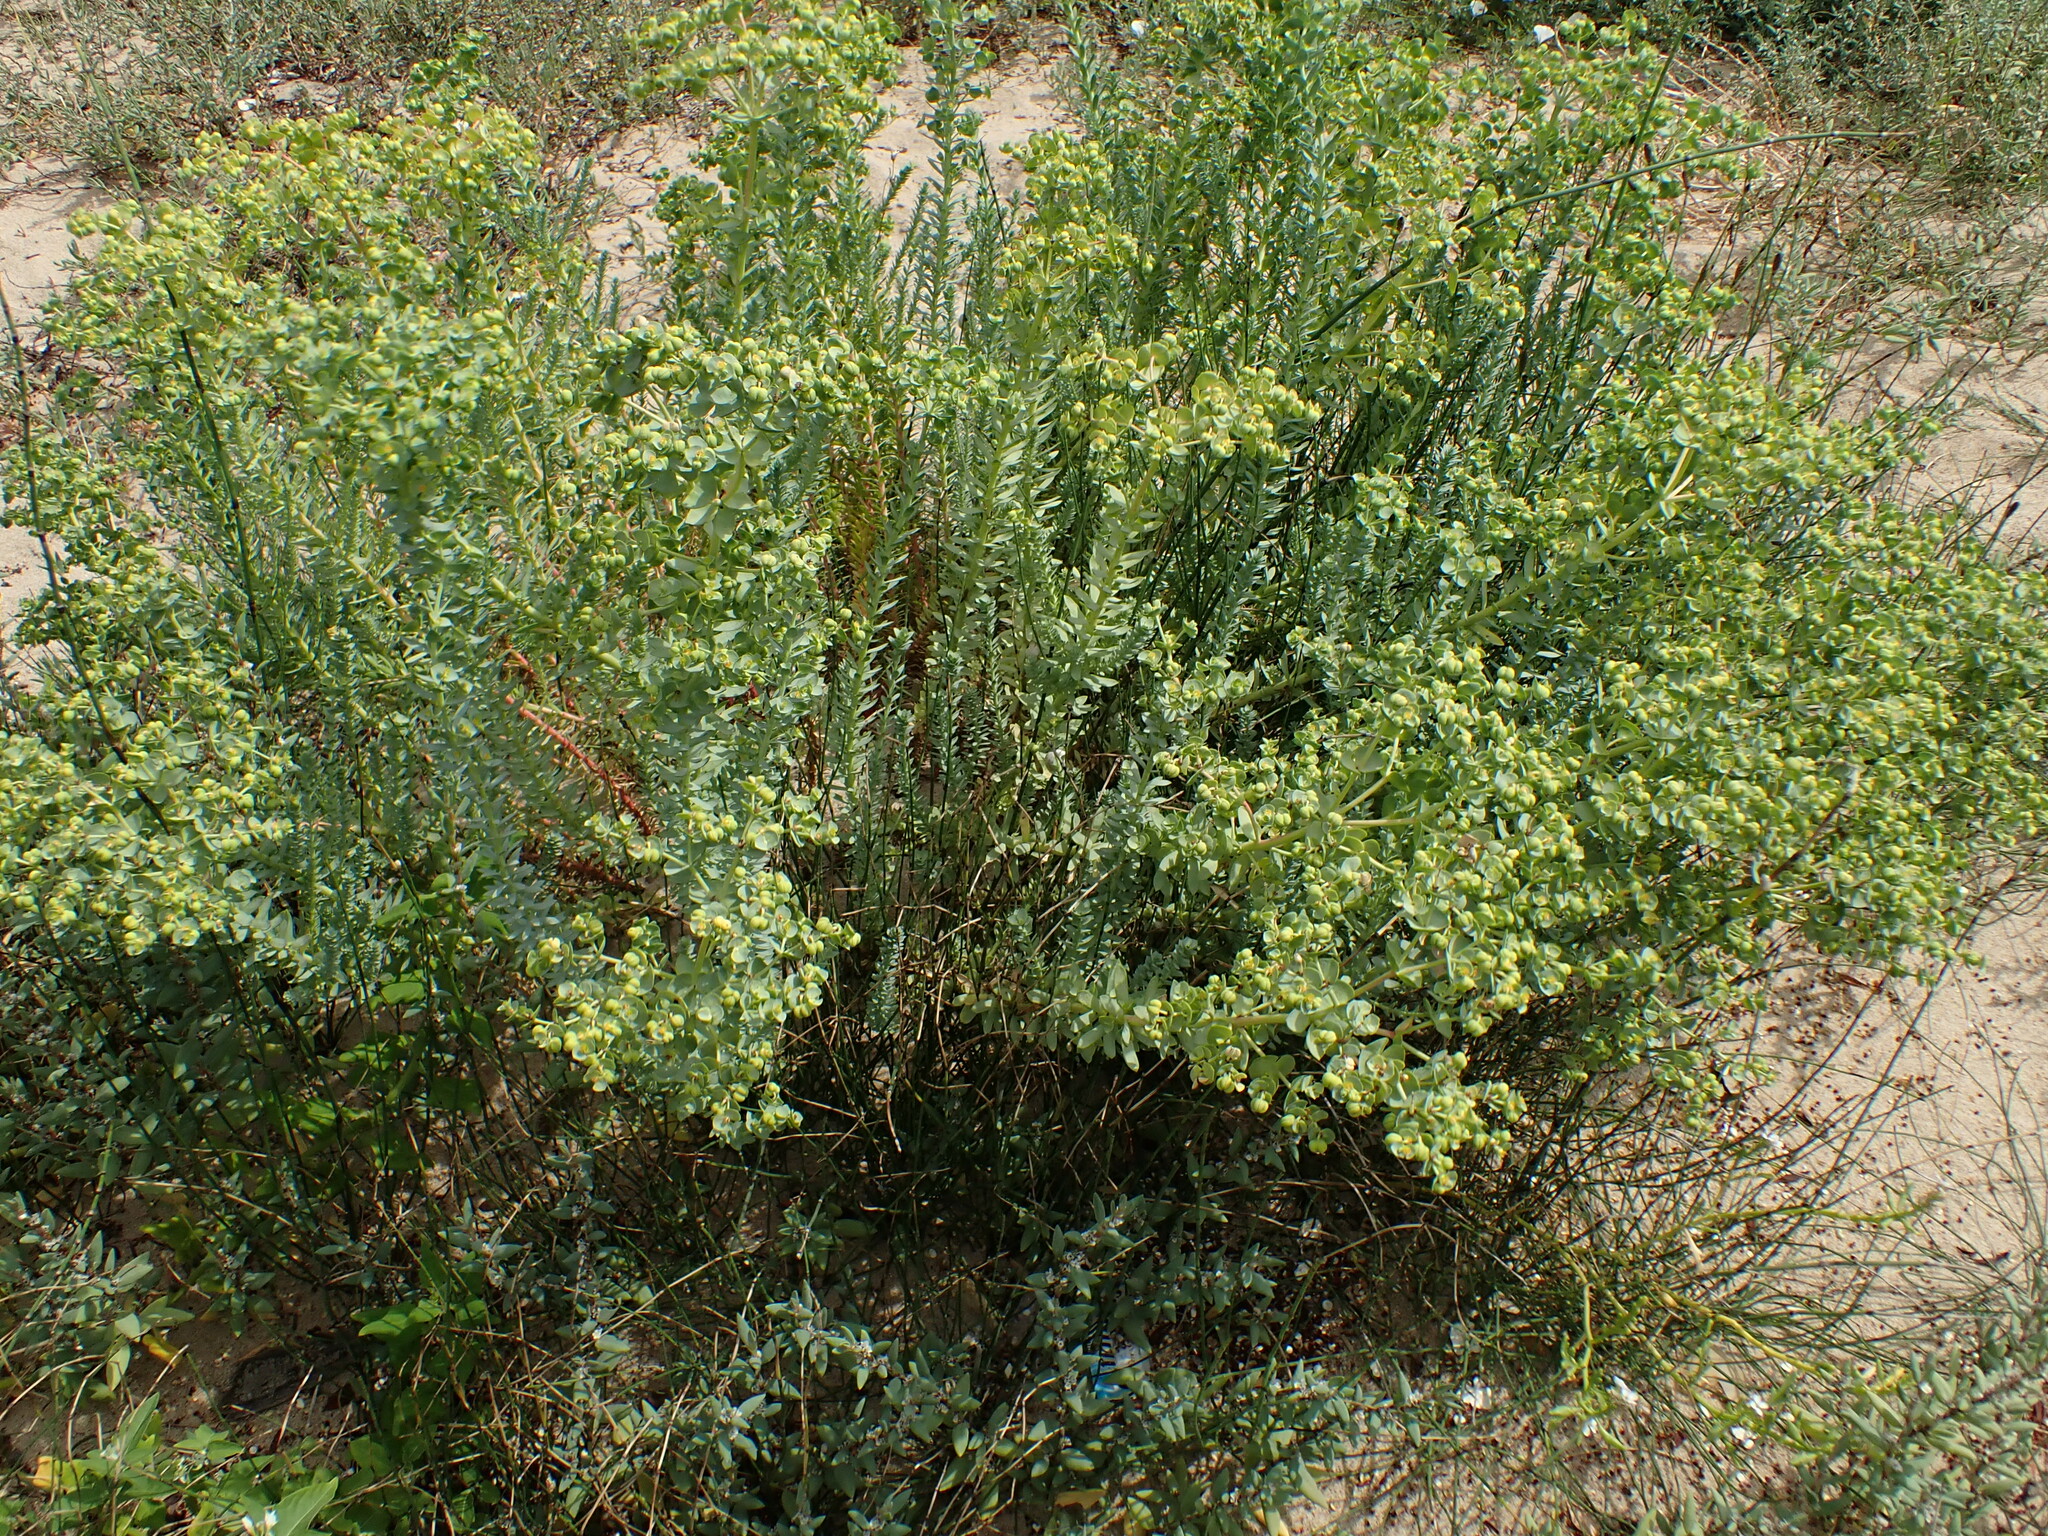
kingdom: Plantae
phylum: Tracheophyta
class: Magnoliopsida
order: Malpighiales
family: Euphorbiaceae
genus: Euphorbia
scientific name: Euphorbia paralias
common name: Sea spurge
